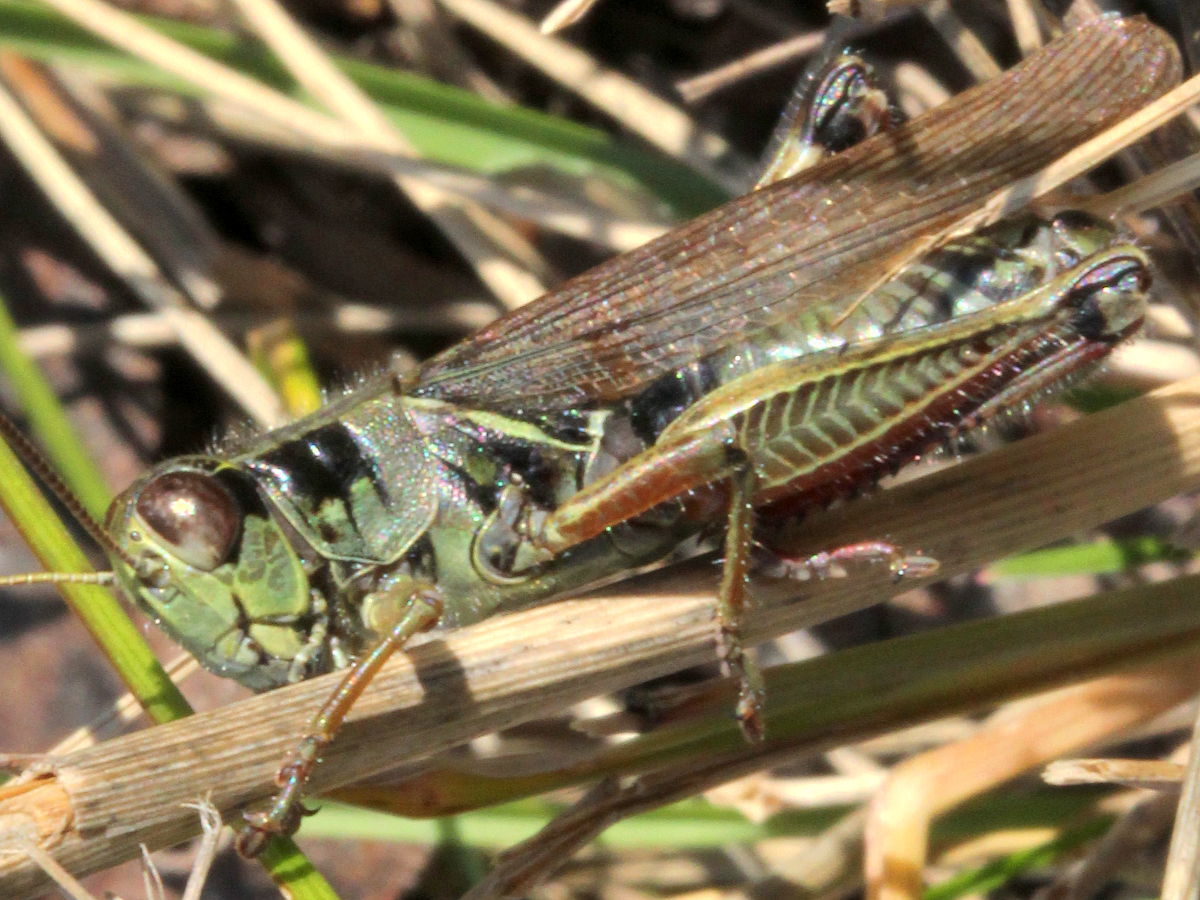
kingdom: Animalia
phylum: Arthropoda
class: Insecta
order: Orthoptera
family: Acrididae
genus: Melanoplus
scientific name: Melanoplus femurrubrum
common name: Red-legged grasshopper
